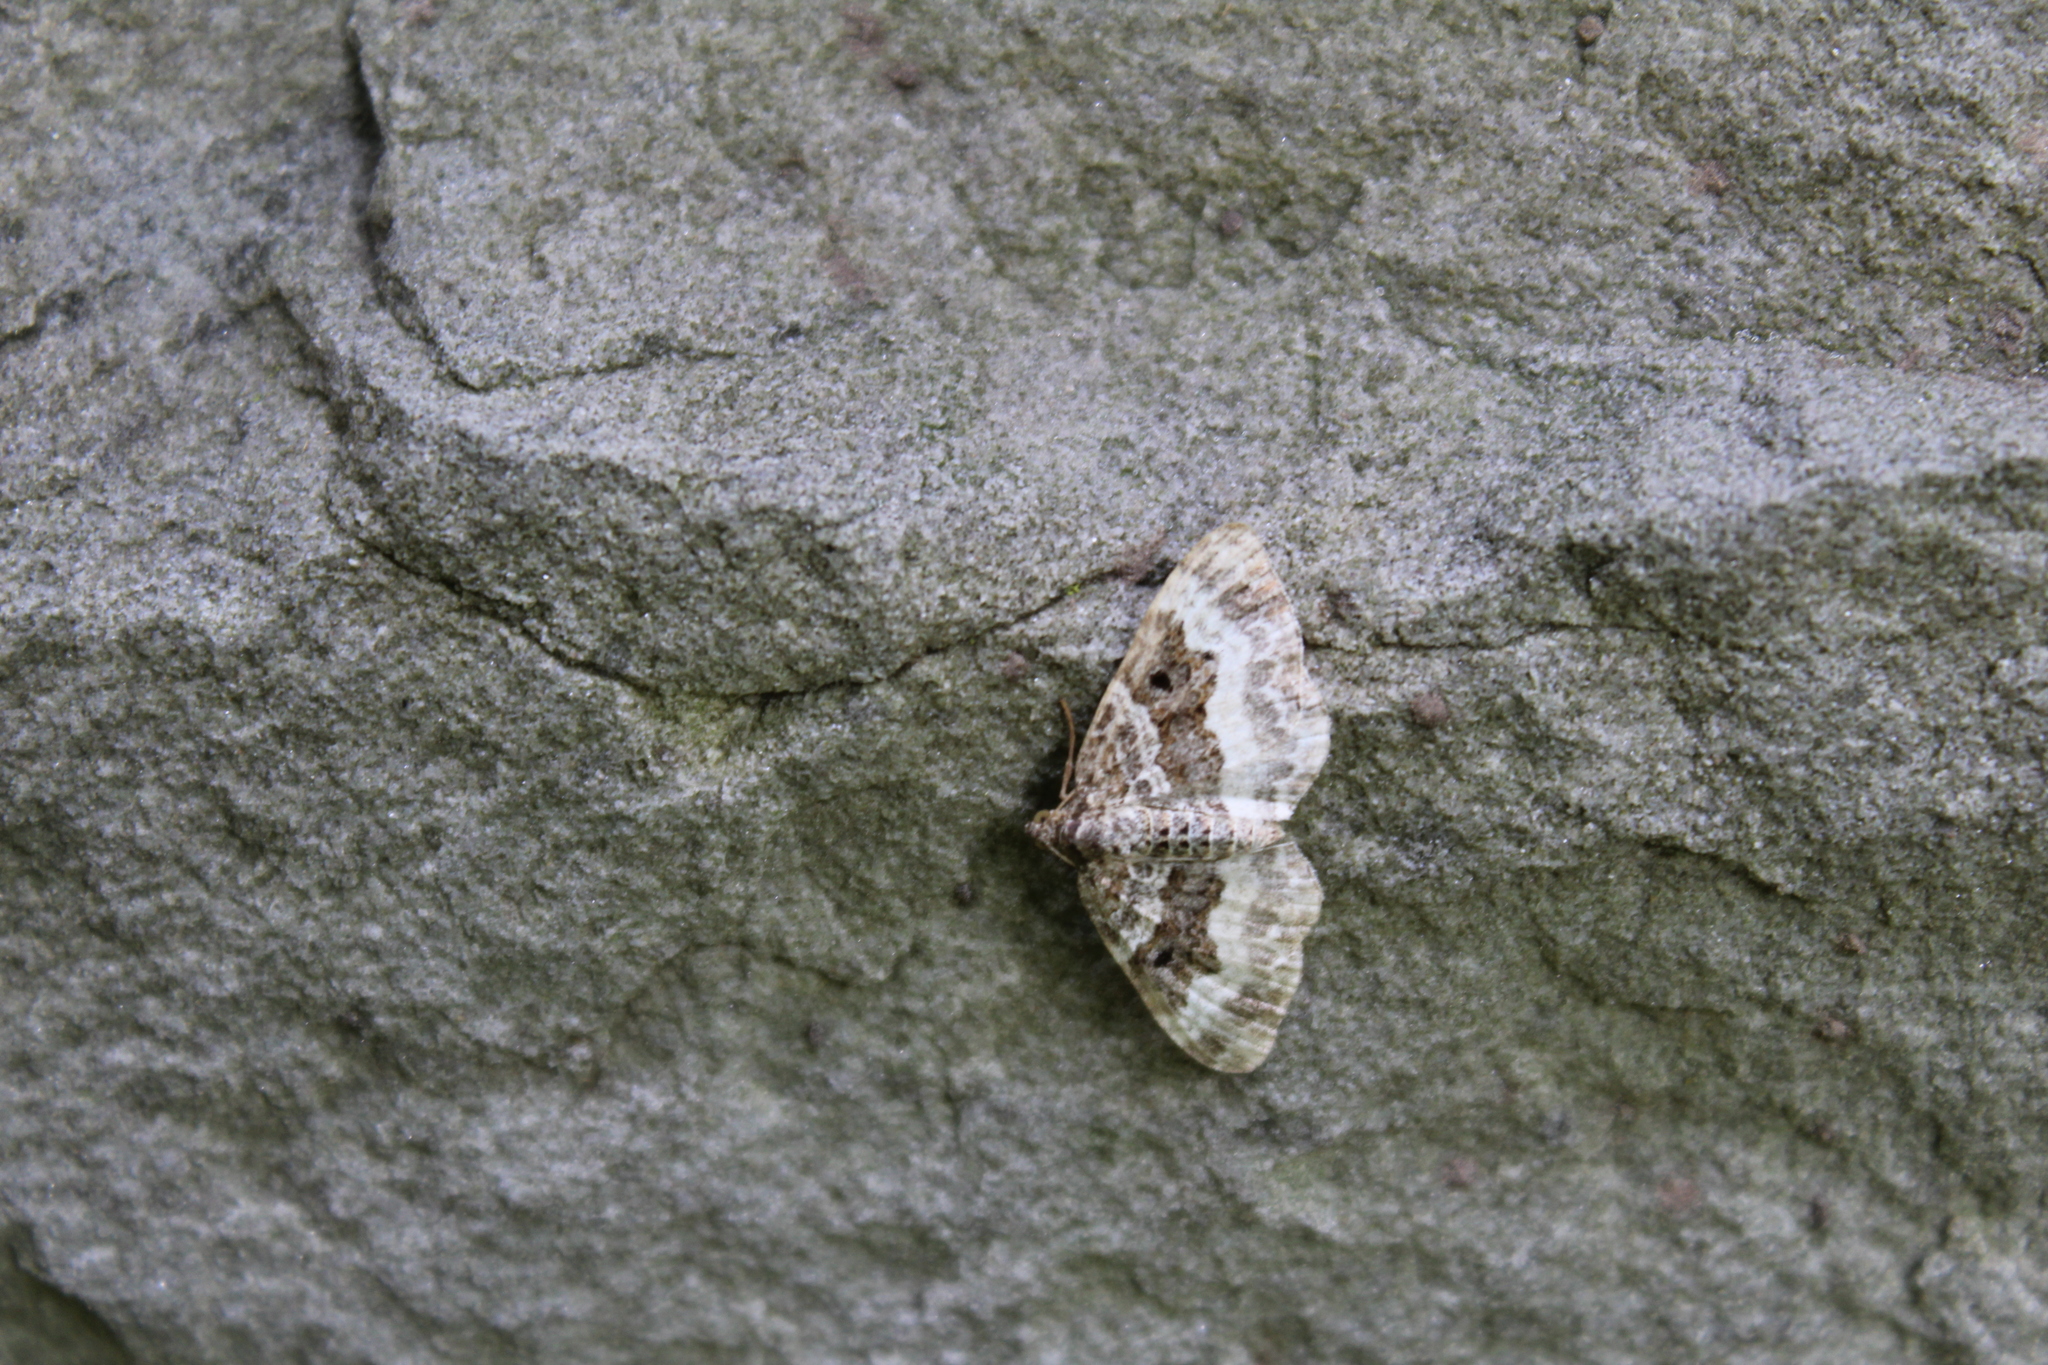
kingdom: Animalia
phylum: Arthropoda
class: Insecta
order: Lepidoptera
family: Geometridae
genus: Epirrhoe
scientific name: Epirrhoe alternata
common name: Common carpet
